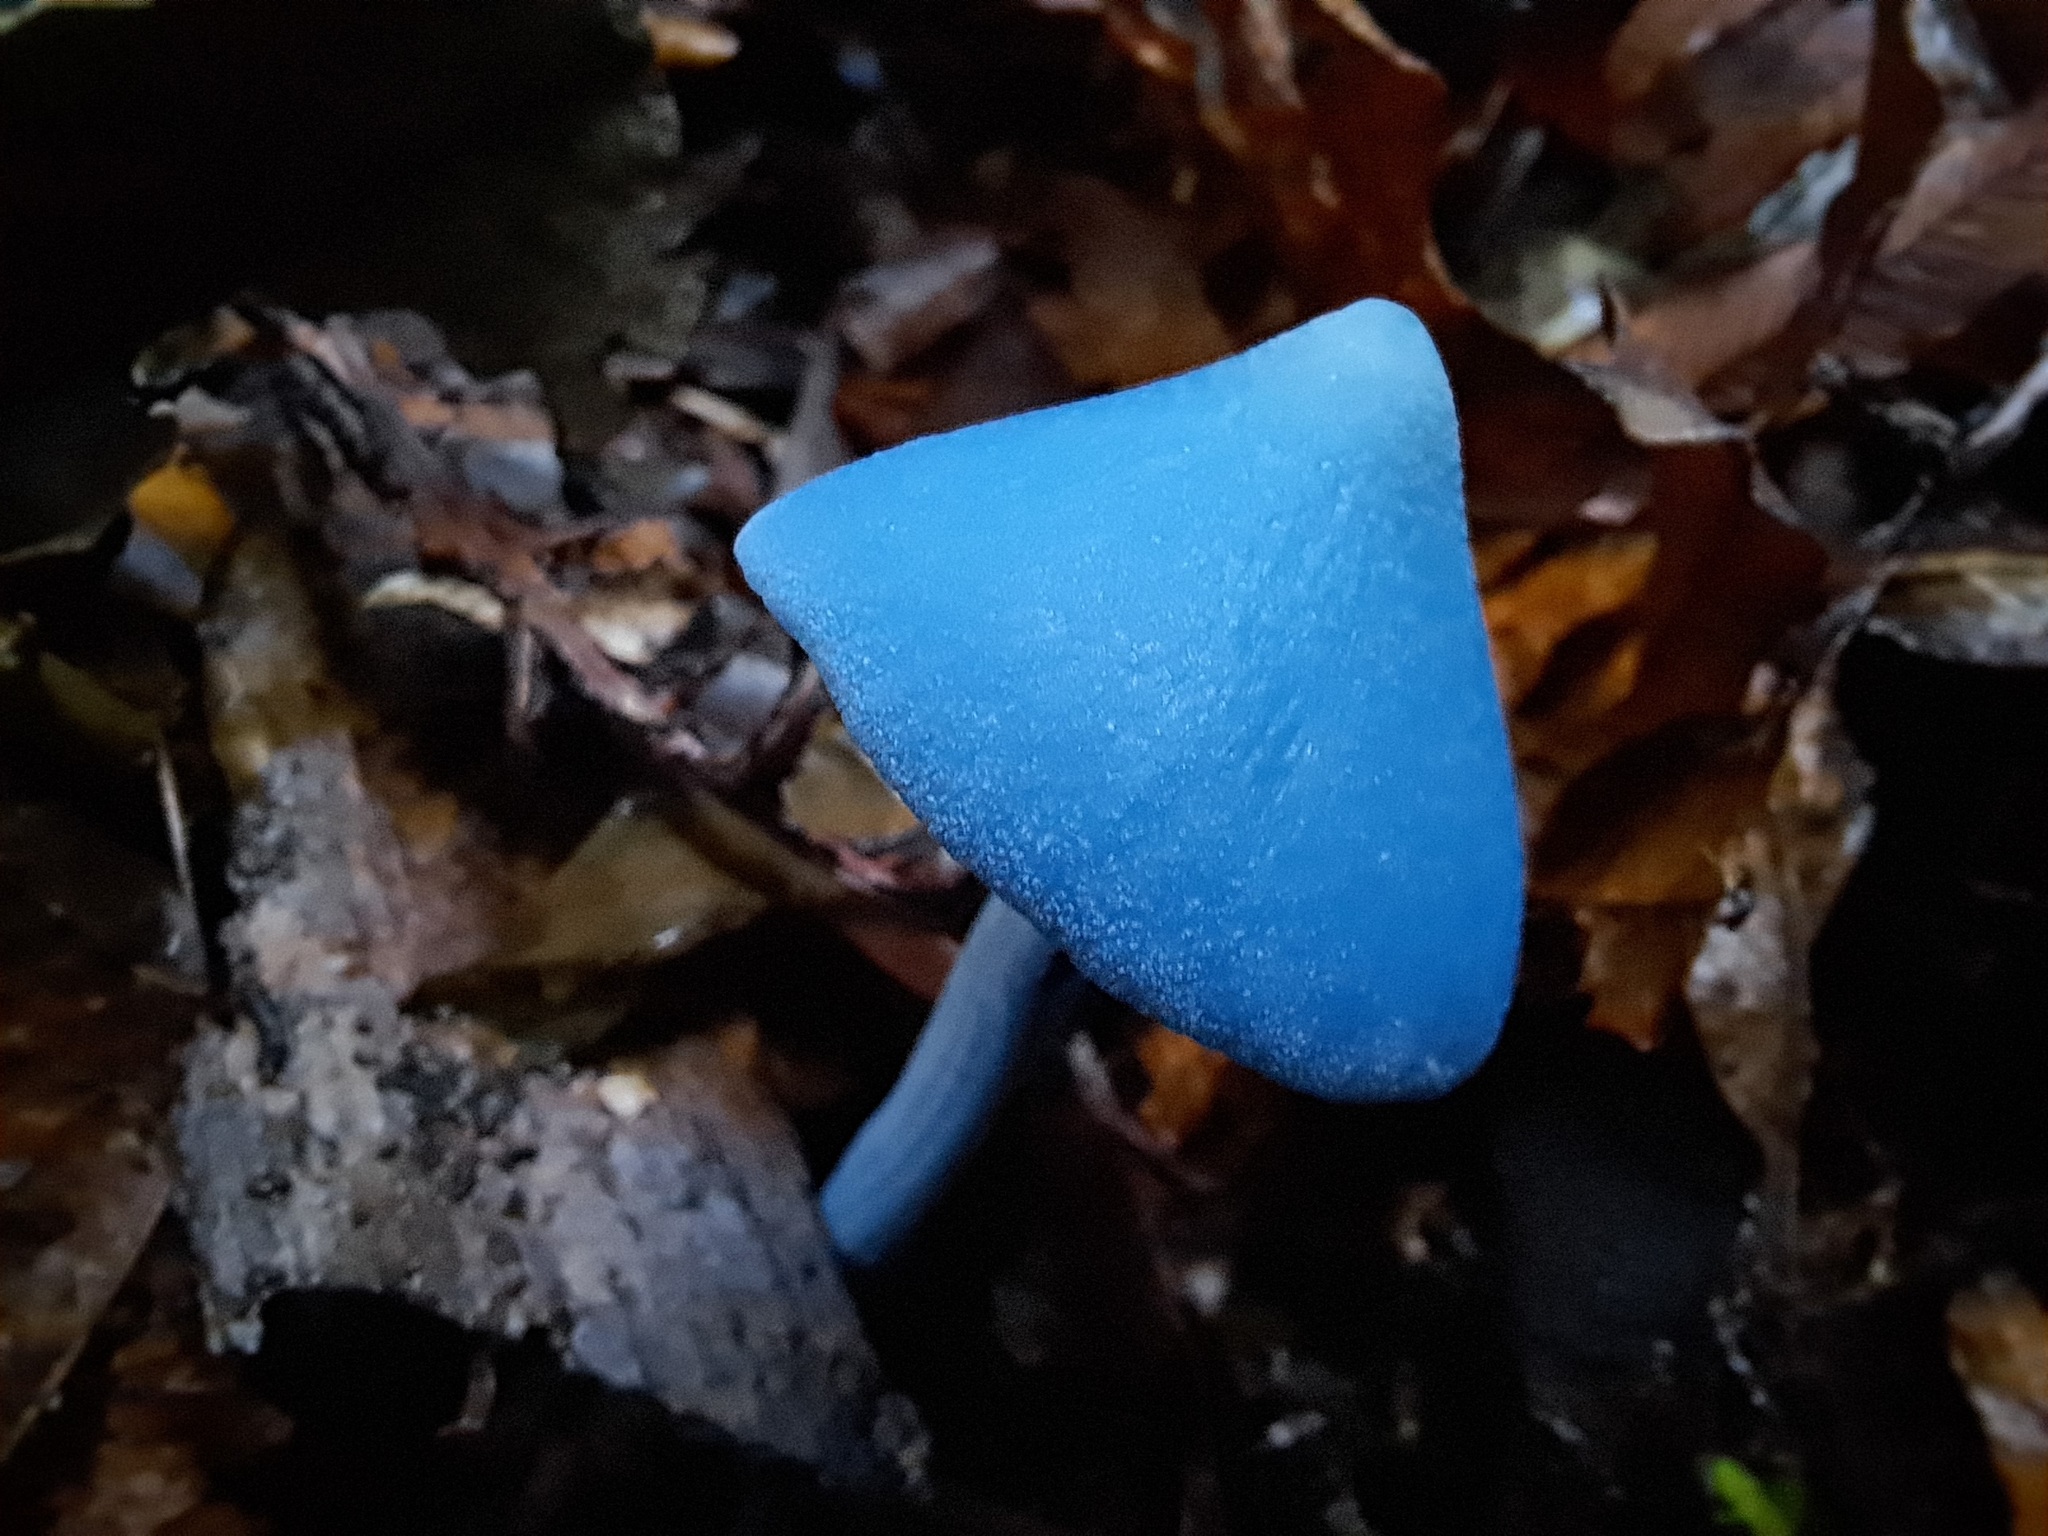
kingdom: Fungi
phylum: Basidiomycota
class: Agaricomycetes
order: Agaricales
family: Entolomataceae
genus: Entoloma
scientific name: Entoloma hochstetteri
